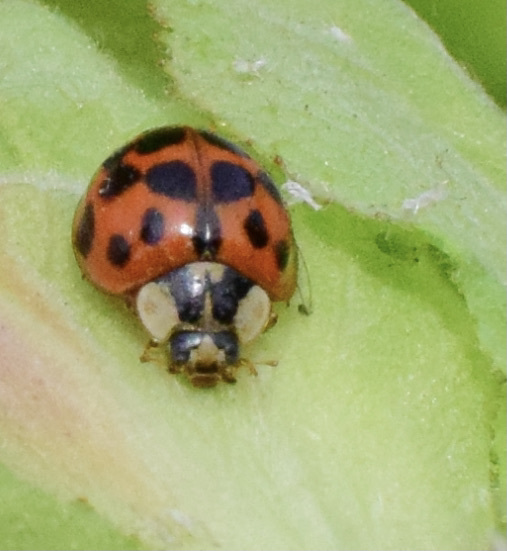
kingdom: Animalia
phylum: Arthropoda
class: Insecta
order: Coleoptera
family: Coccinellidae
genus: Harmonia
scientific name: Harmonia axyridis
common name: Harlequin ladybird
